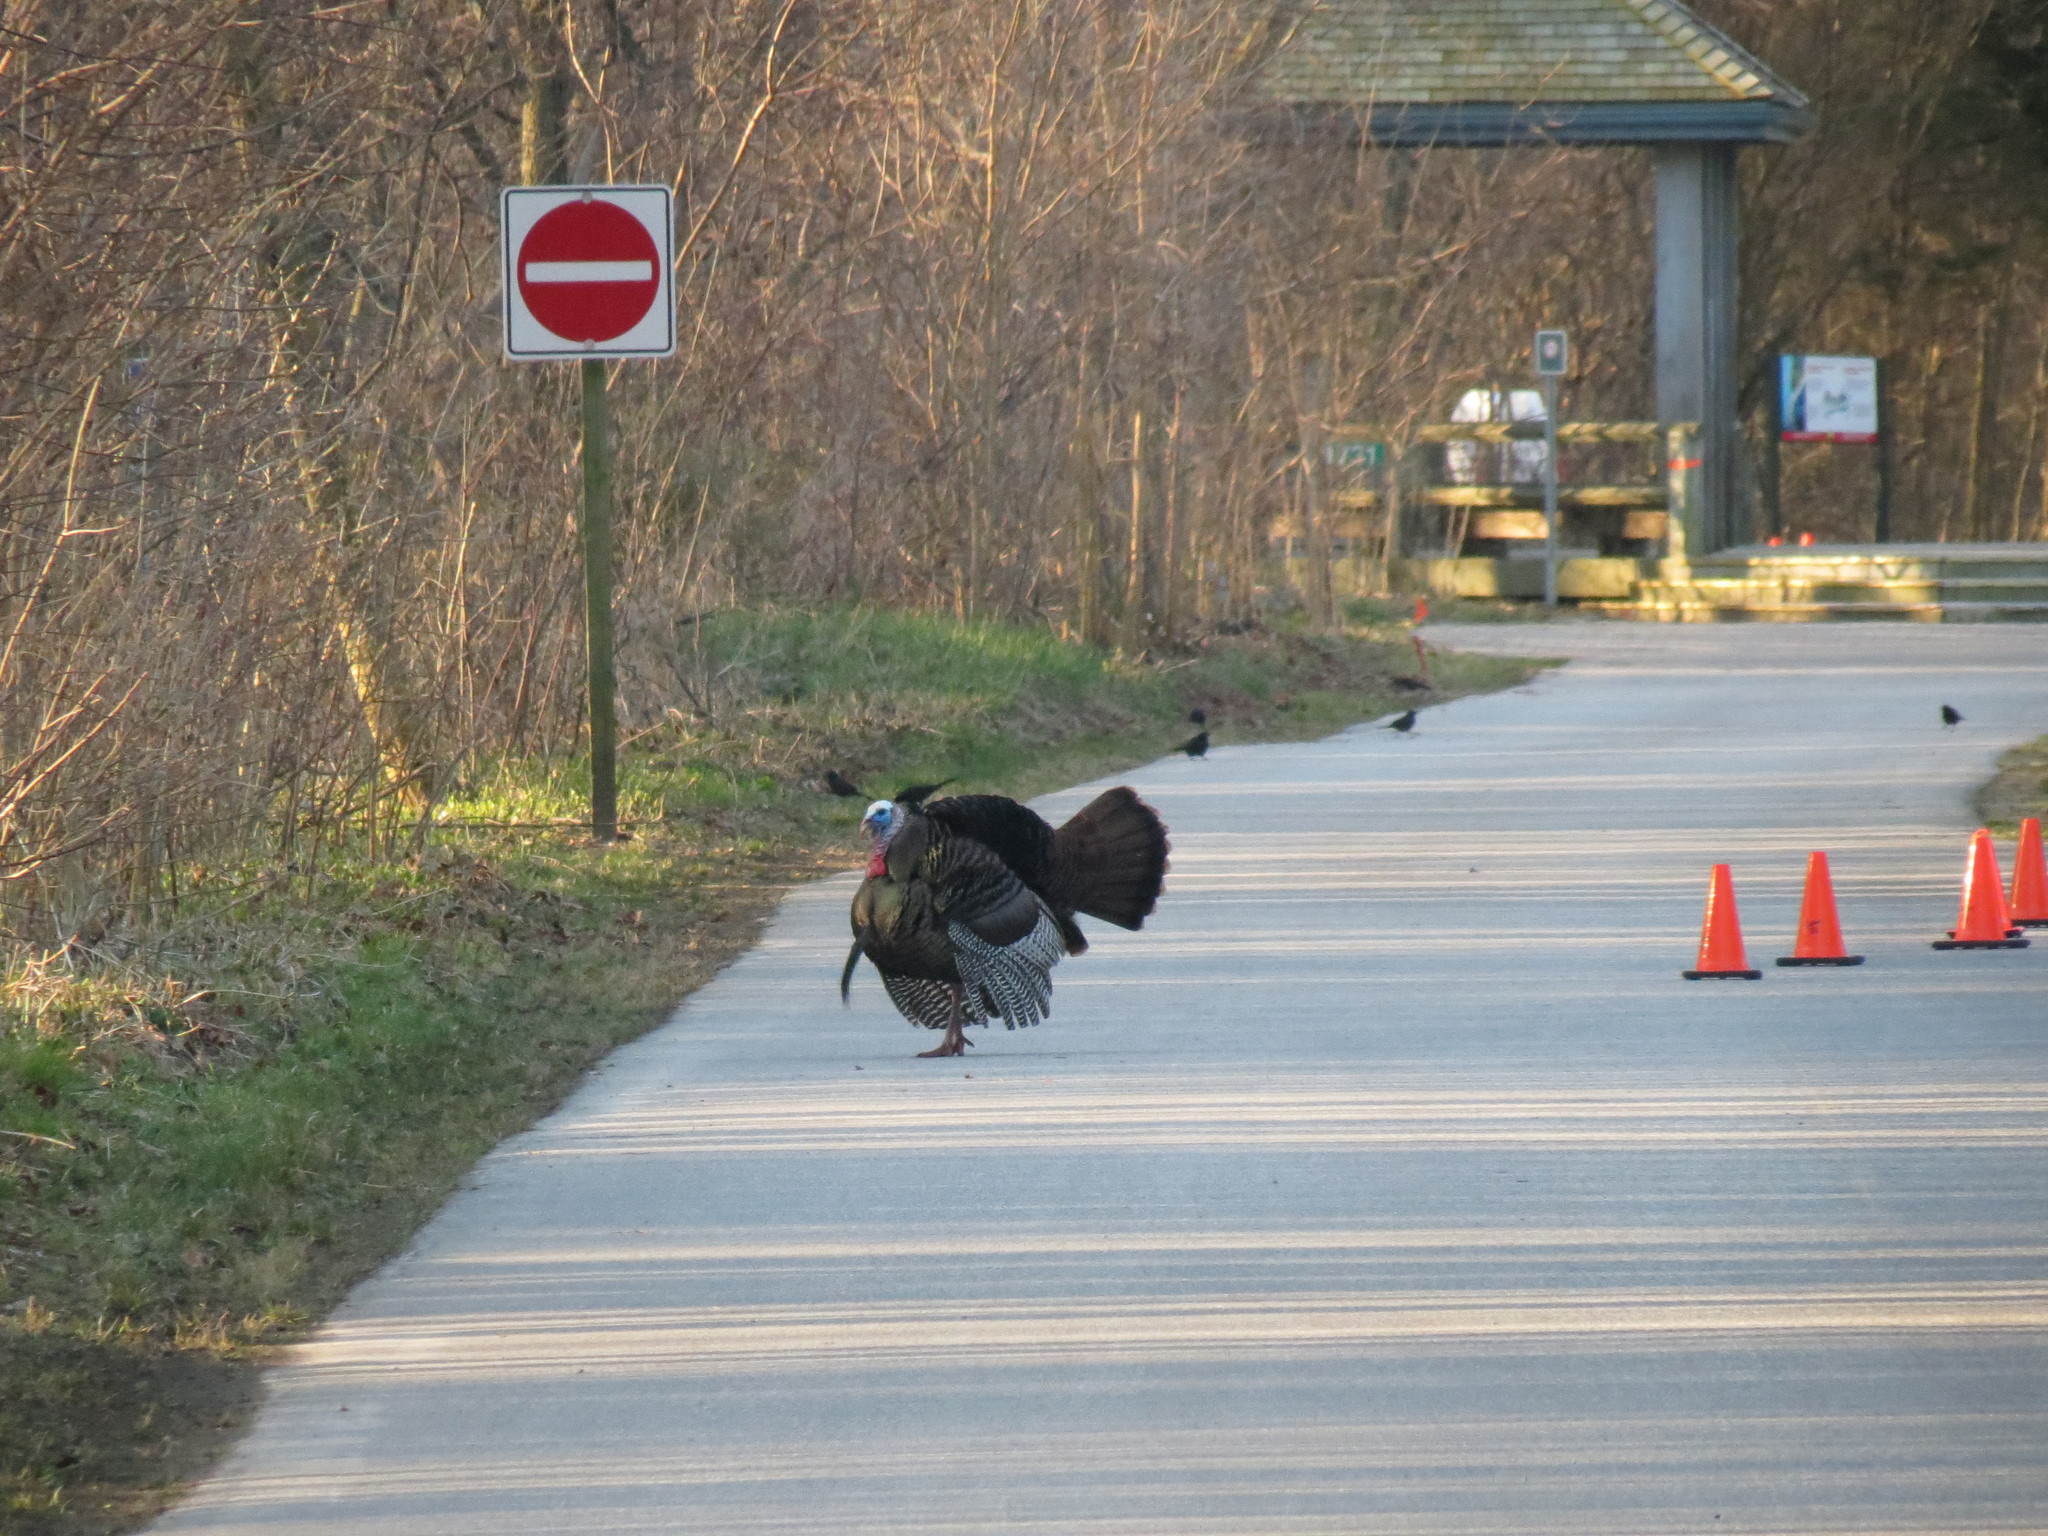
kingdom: Animalia
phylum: Chordata
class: Aves
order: Galliformes
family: Phasianidae
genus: Meleagris
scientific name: Meleagris gallopavo
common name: Wild turkey
